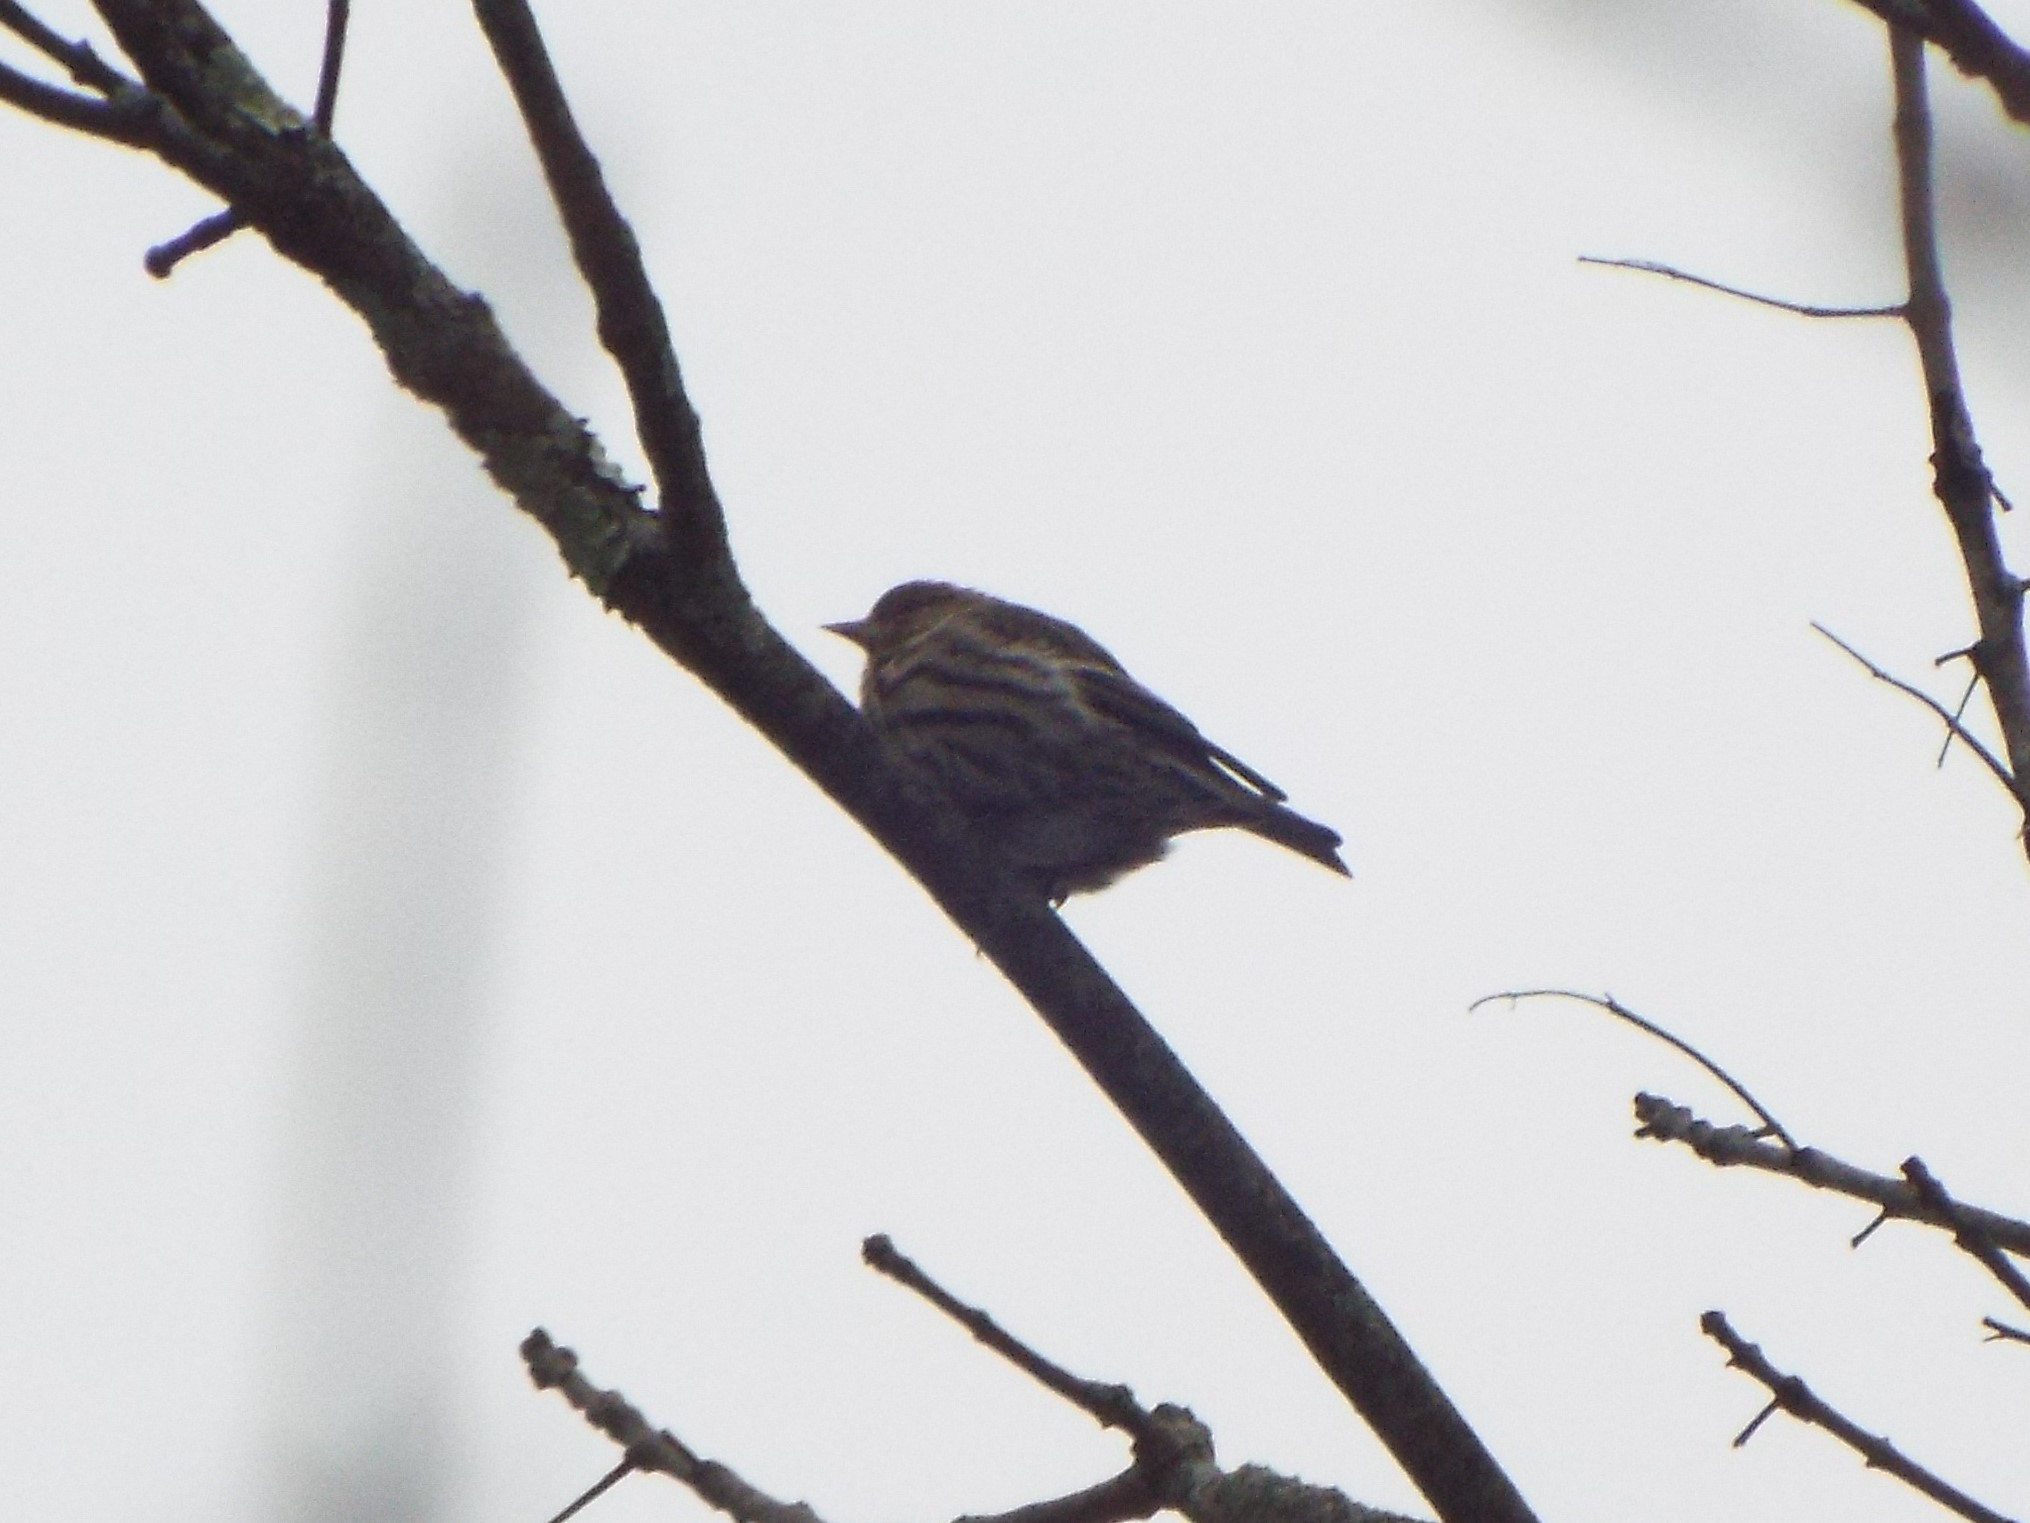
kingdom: Animalia
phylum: Chordata
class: Aves
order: Passeriformes
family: Fringillidae
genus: Spinus
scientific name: Spinus pinus
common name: Pine siskin
